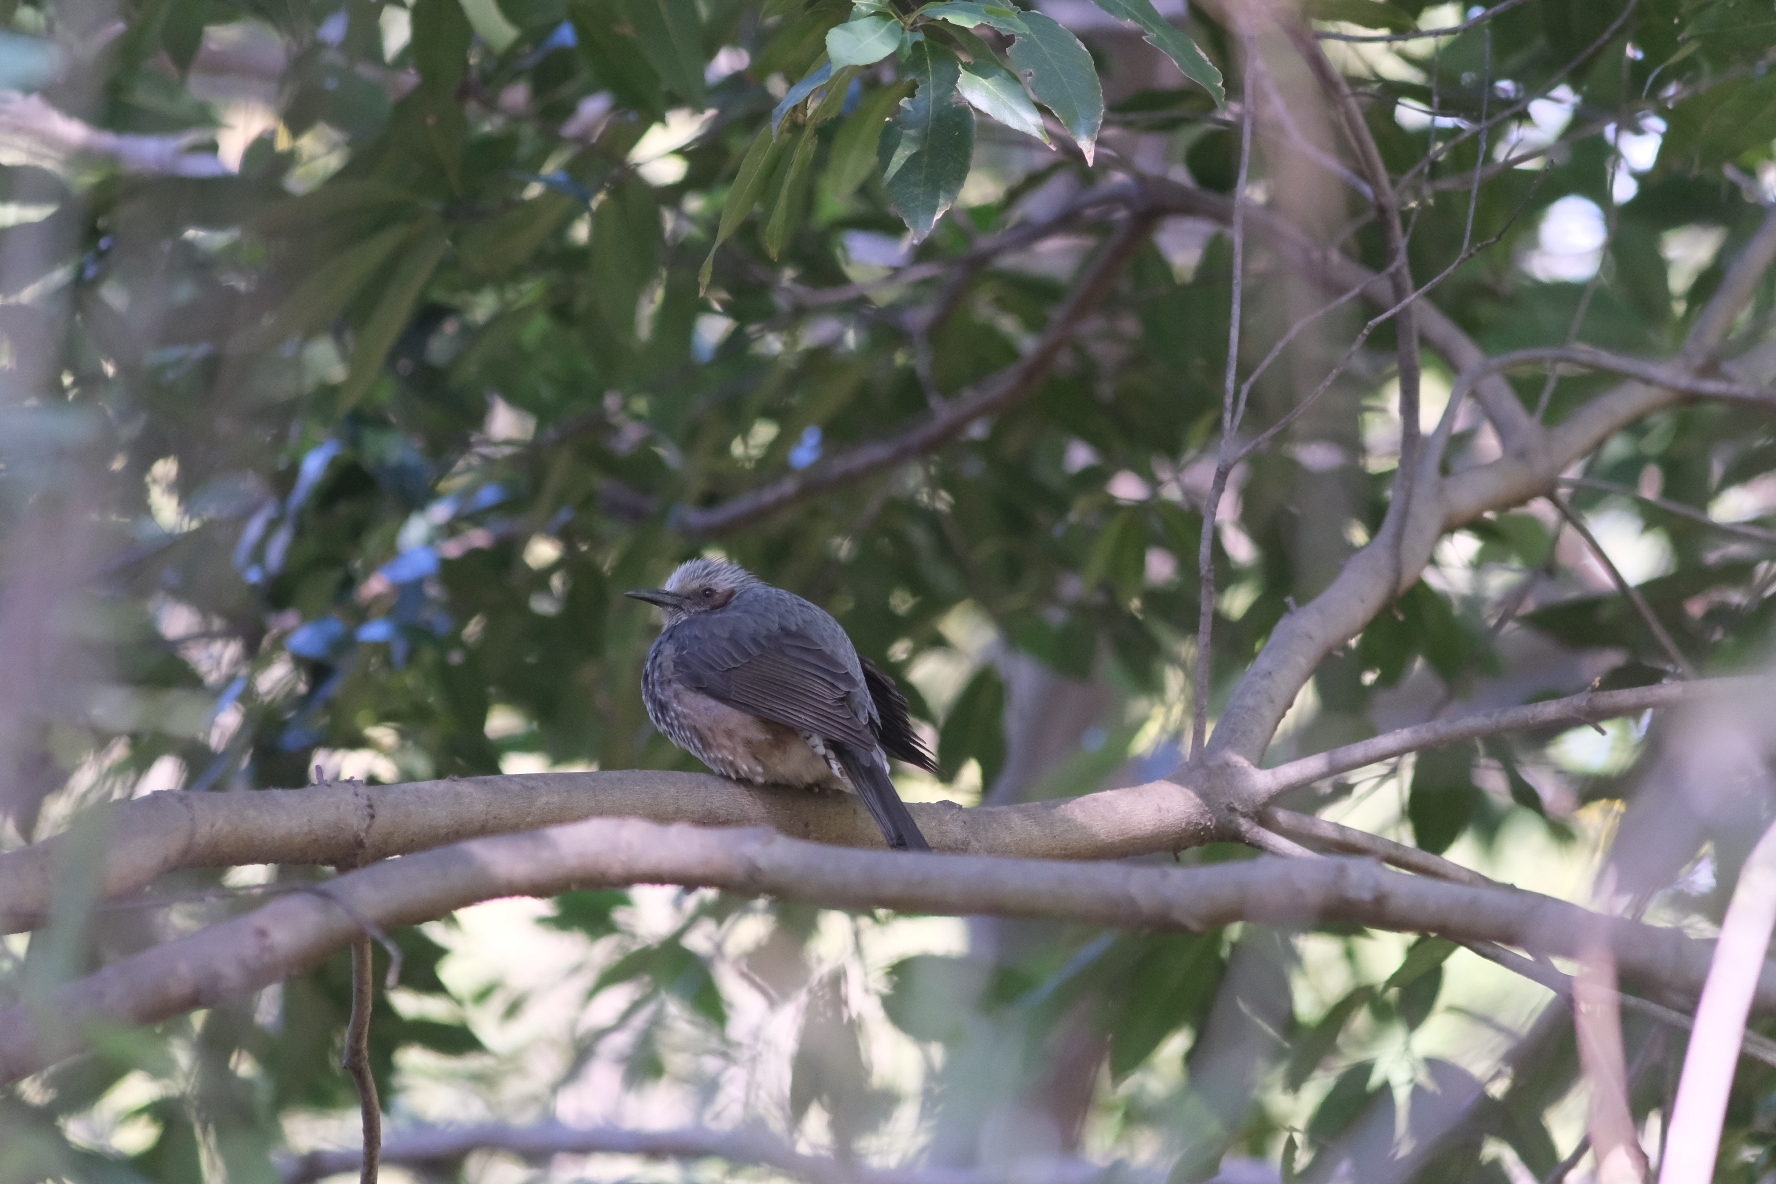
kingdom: Animalia
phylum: Chordata
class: Aves
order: Passeriformes
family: Pycnonotidae
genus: Hypsipetes
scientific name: Hypsipetes amaurotis
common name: Brown-eared bulbul
